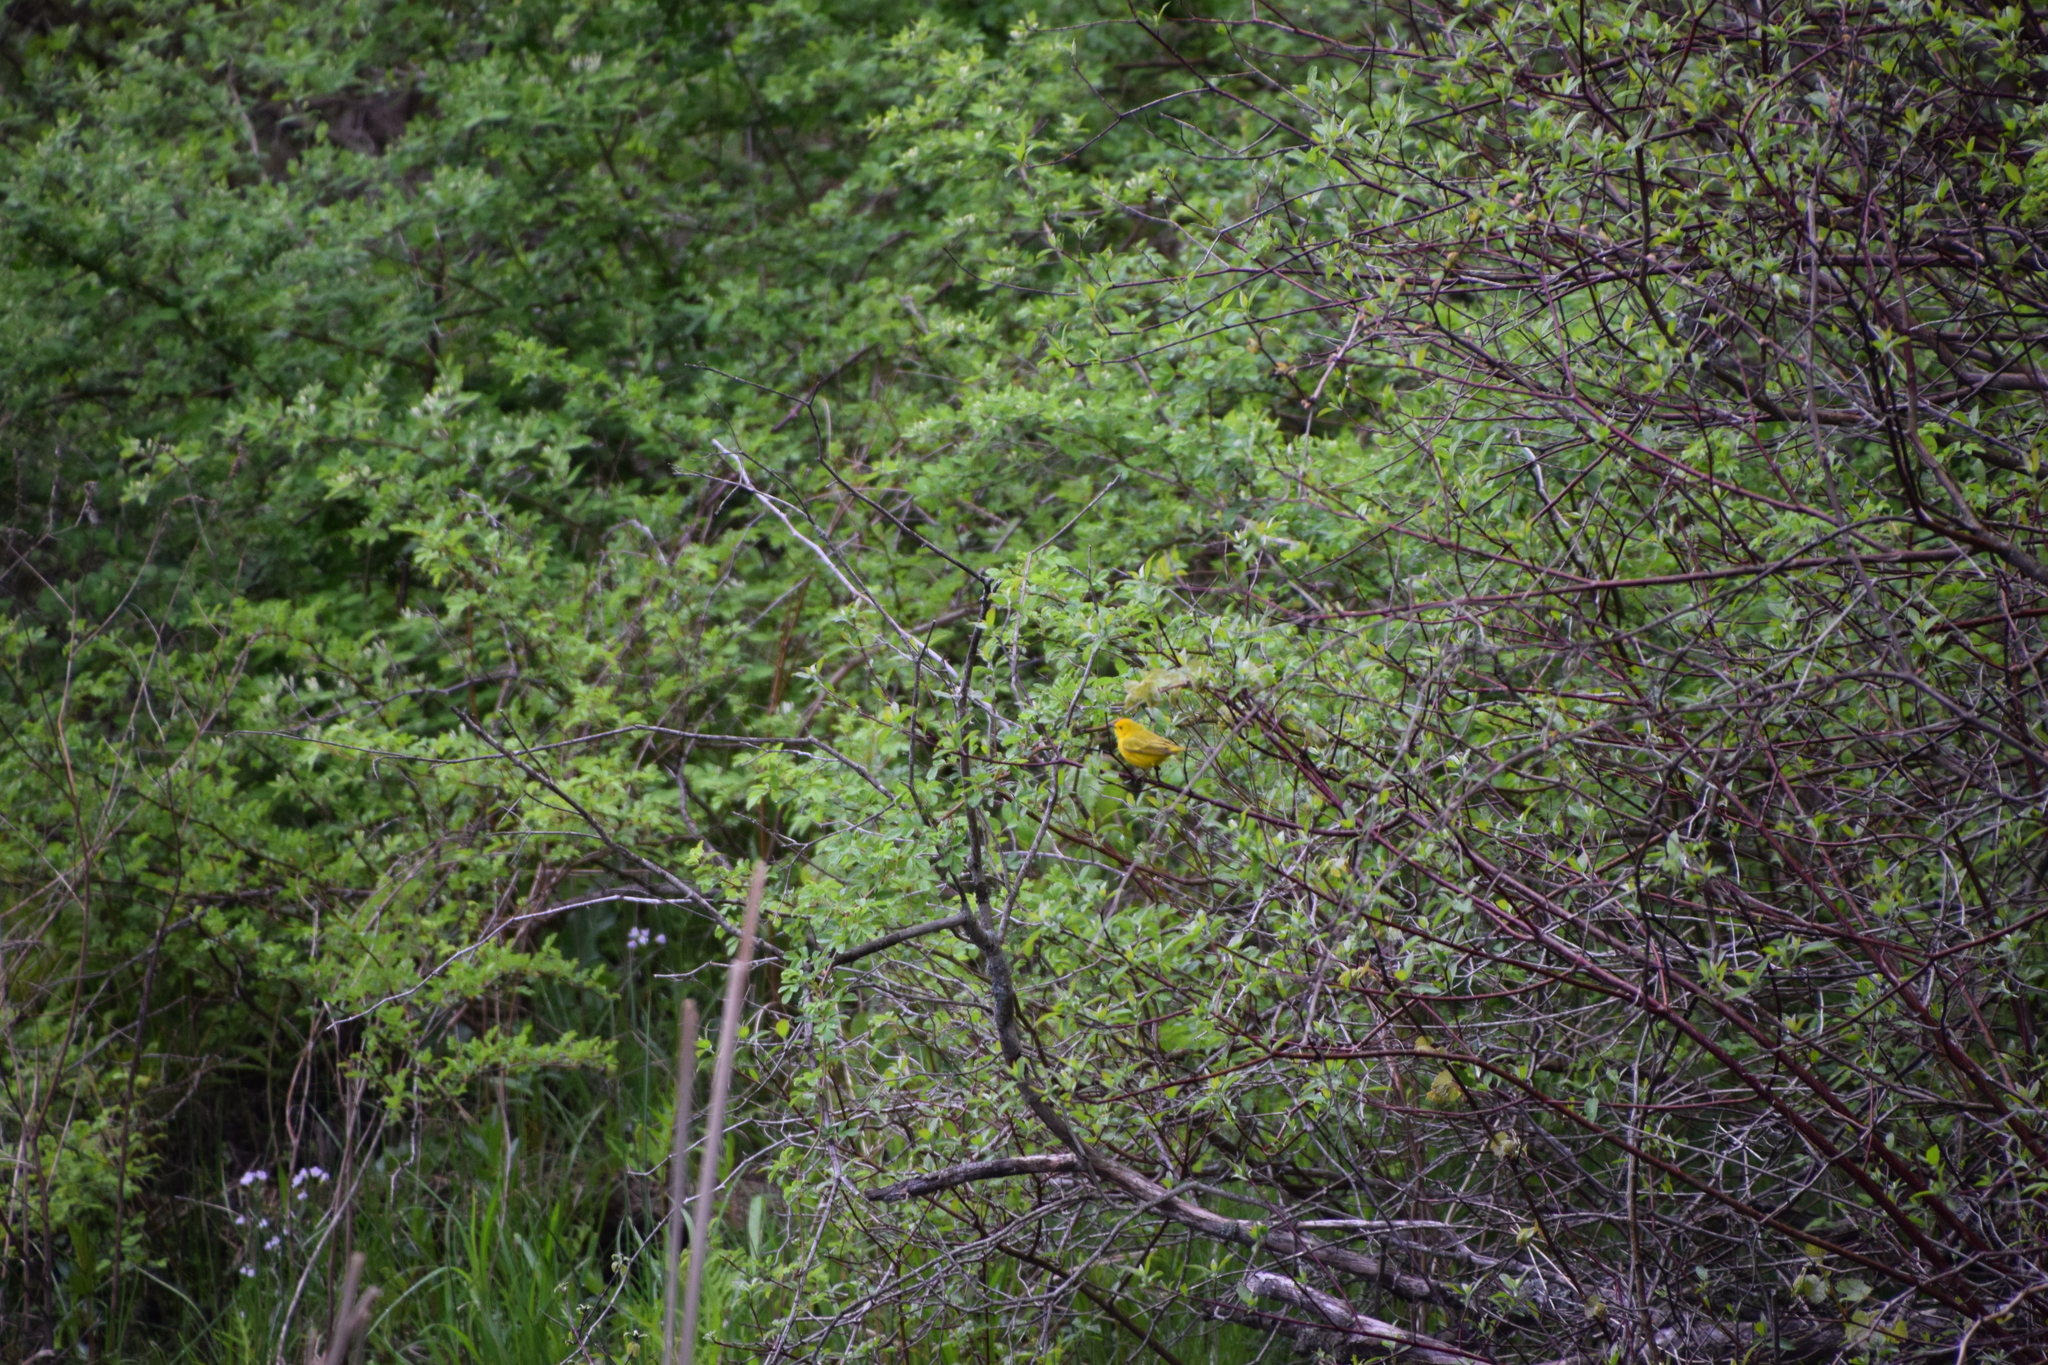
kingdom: Animalia
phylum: Chordata
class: Aves
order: Passeriformes
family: Parulidae
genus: Setophaga
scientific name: Setophaga petechia
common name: Yellow warbler
